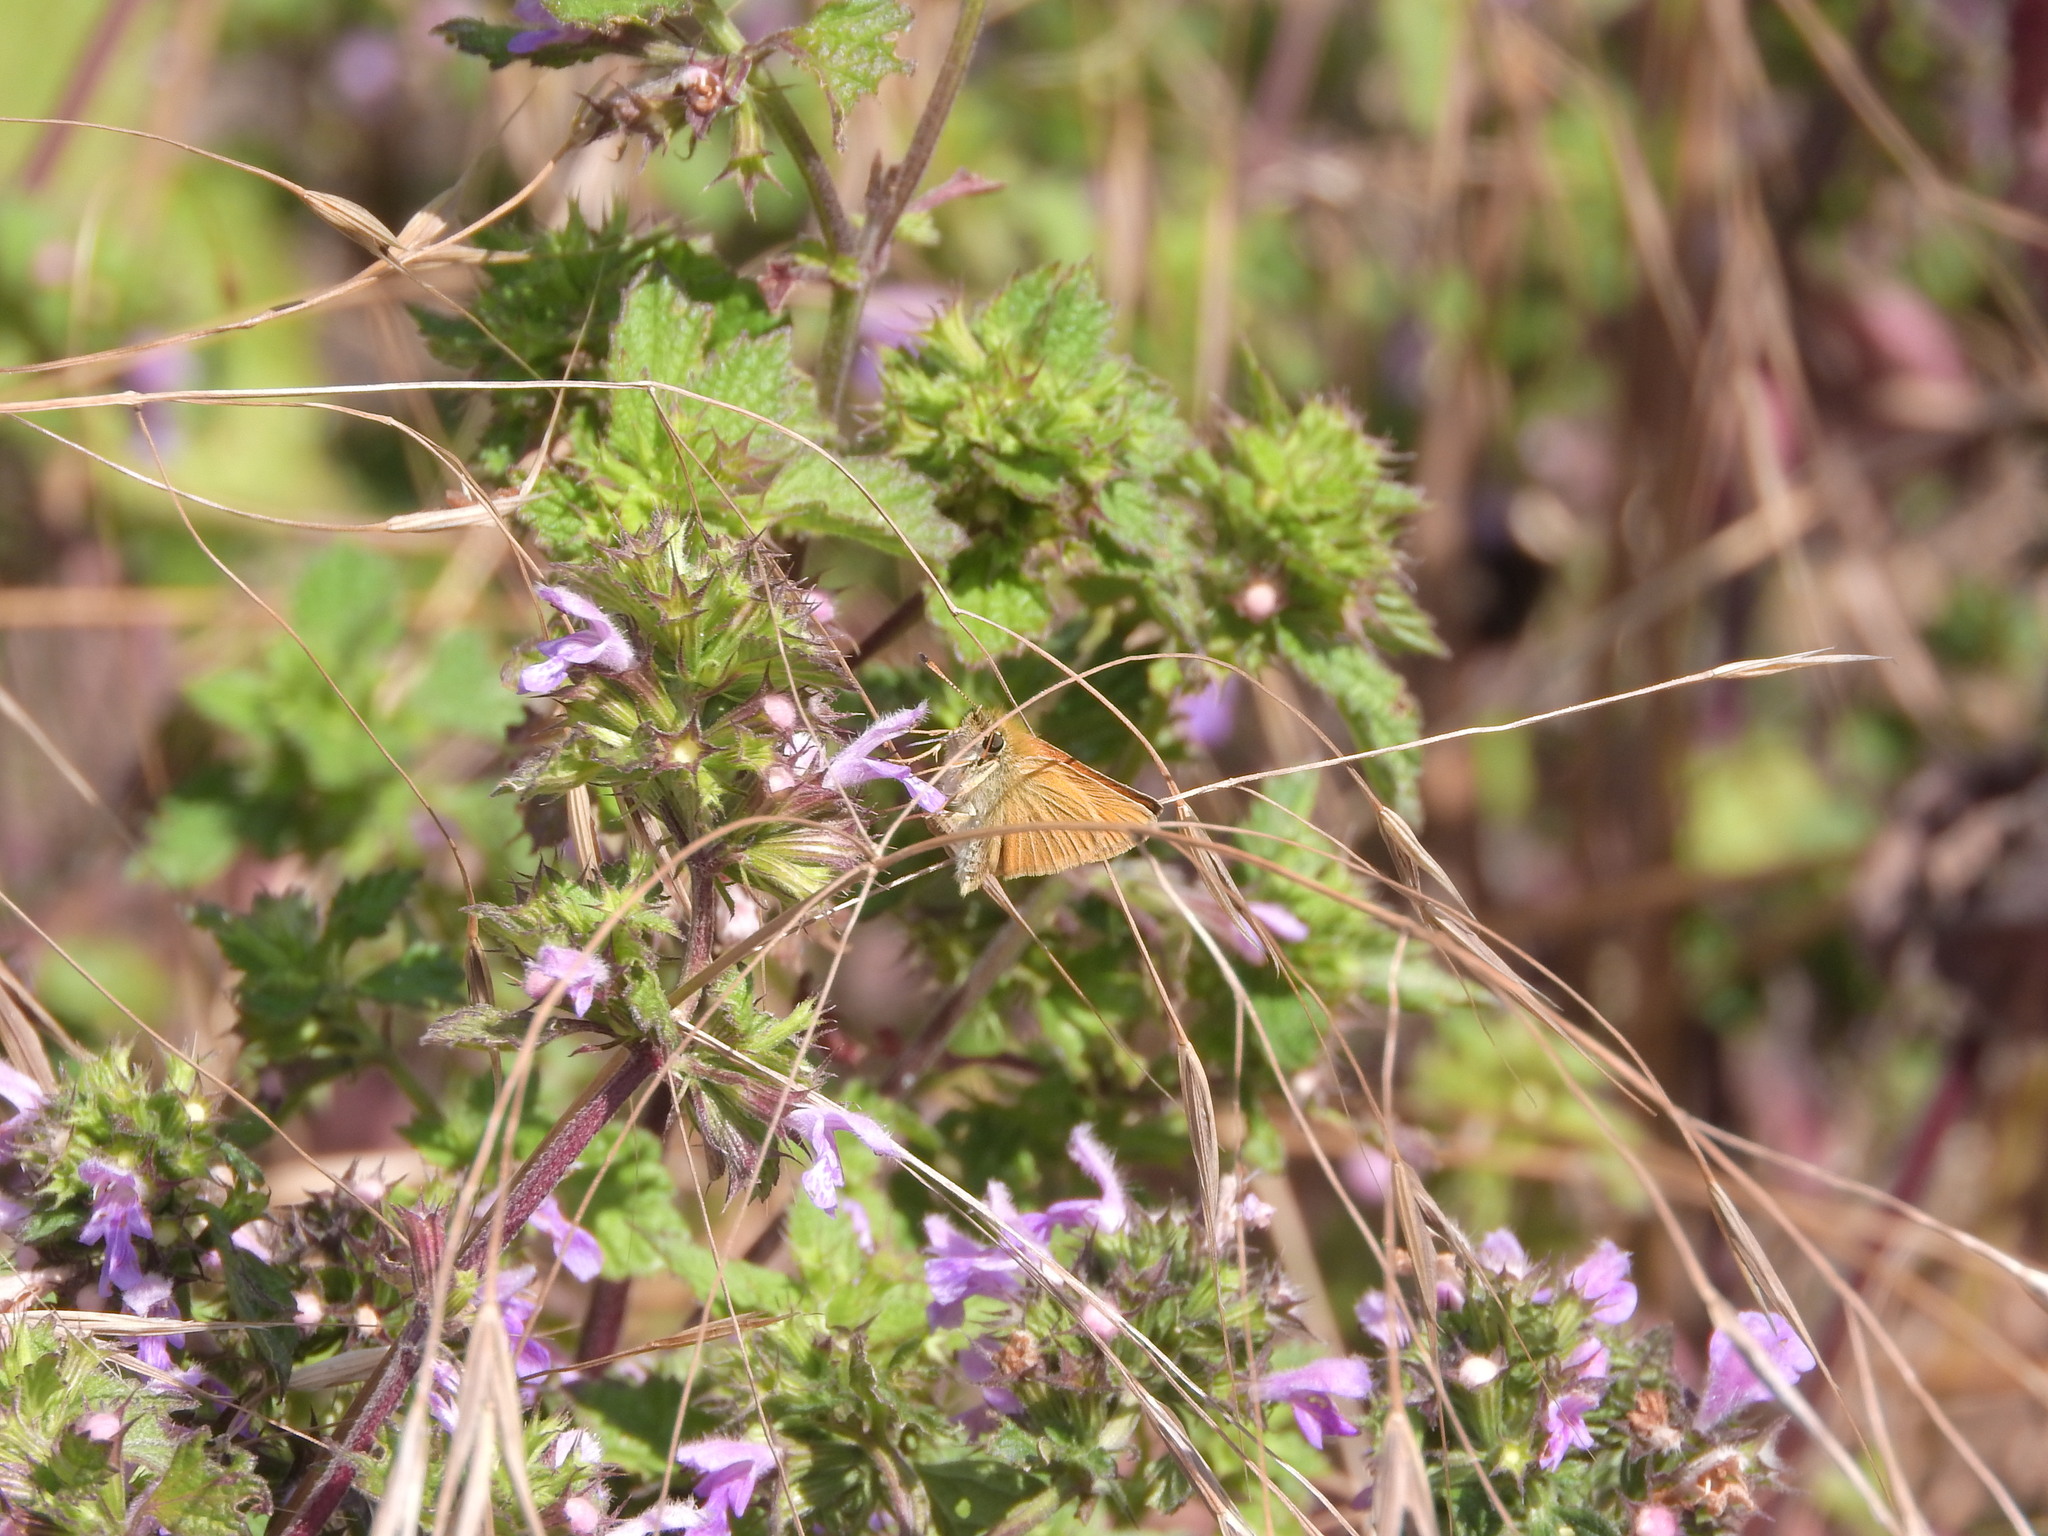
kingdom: Animalia
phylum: Arthropoda
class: Insecta
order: Lepidoptera
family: Hesperiidae
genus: Thymelicus
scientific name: Thymelicus lineola
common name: Essex skipper
